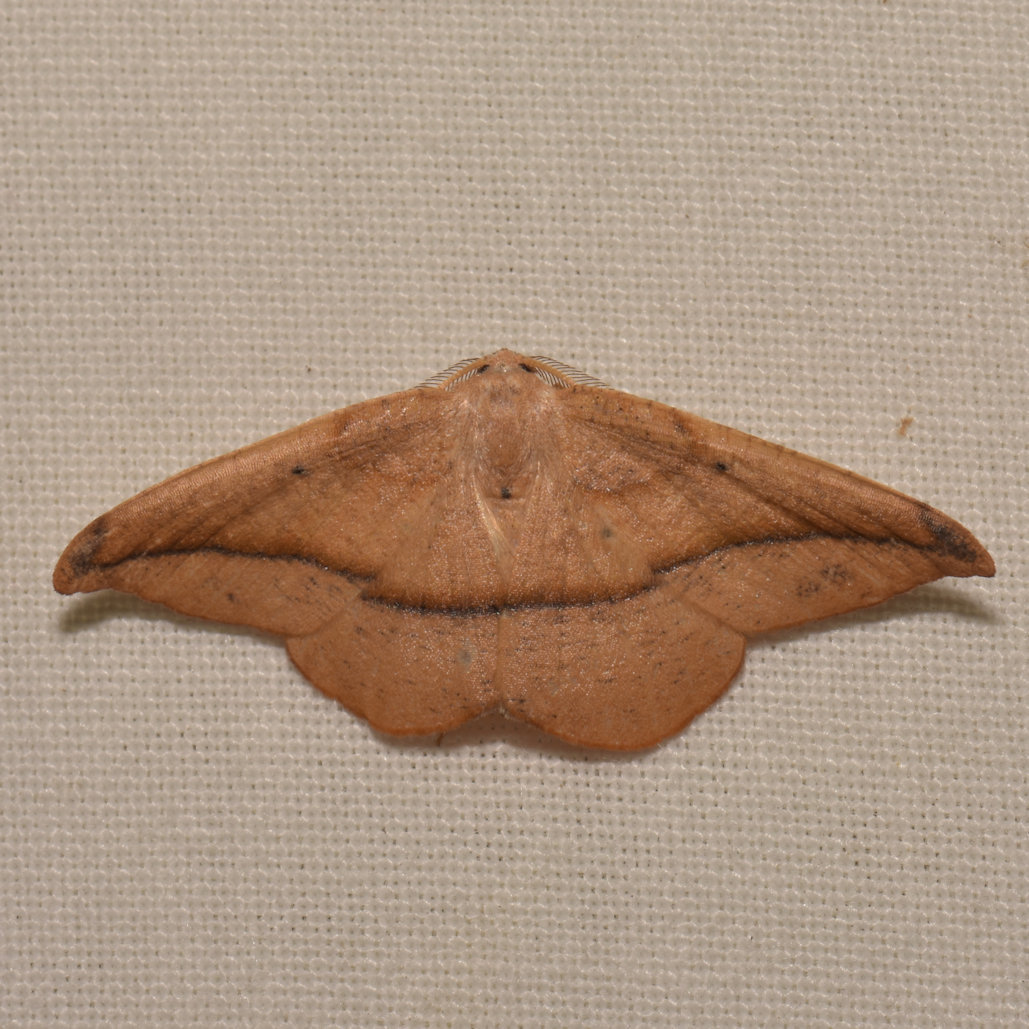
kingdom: Animalia
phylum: Arthropoda
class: Insecta
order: Lepidoptera
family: Geometridae
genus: Patalene
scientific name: Patalene olyzonaria
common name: Juniper geometer moth
